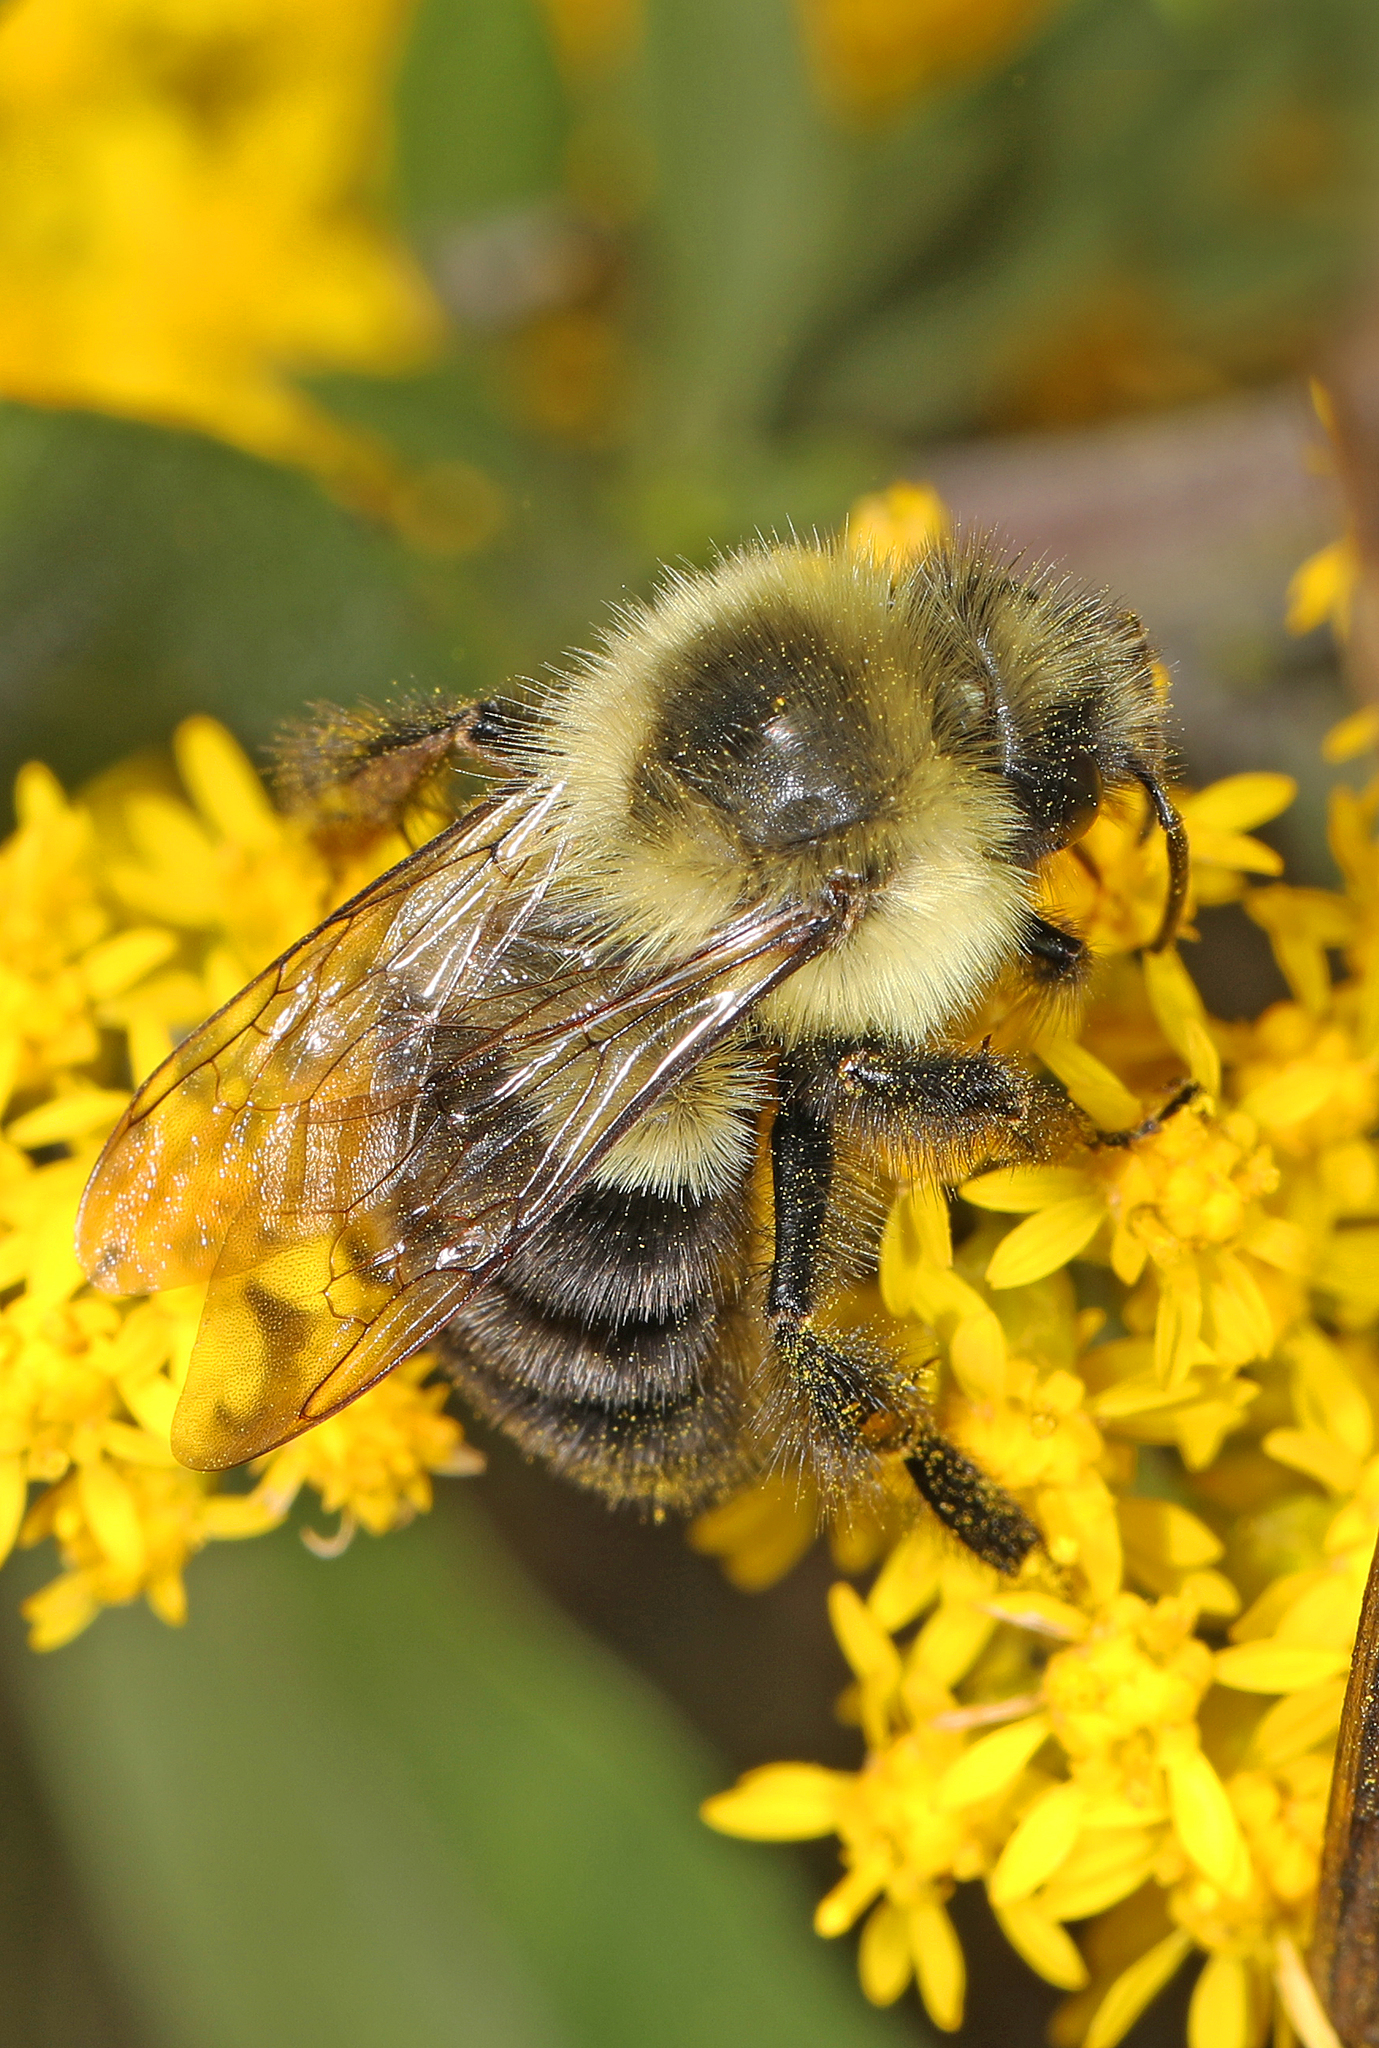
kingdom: Animalia
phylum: Arthropoda
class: Insecta
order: Hymenoptera
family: Apidae
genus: Bombus
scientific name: Bombus impatiens
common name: Common eastern bumble bee
